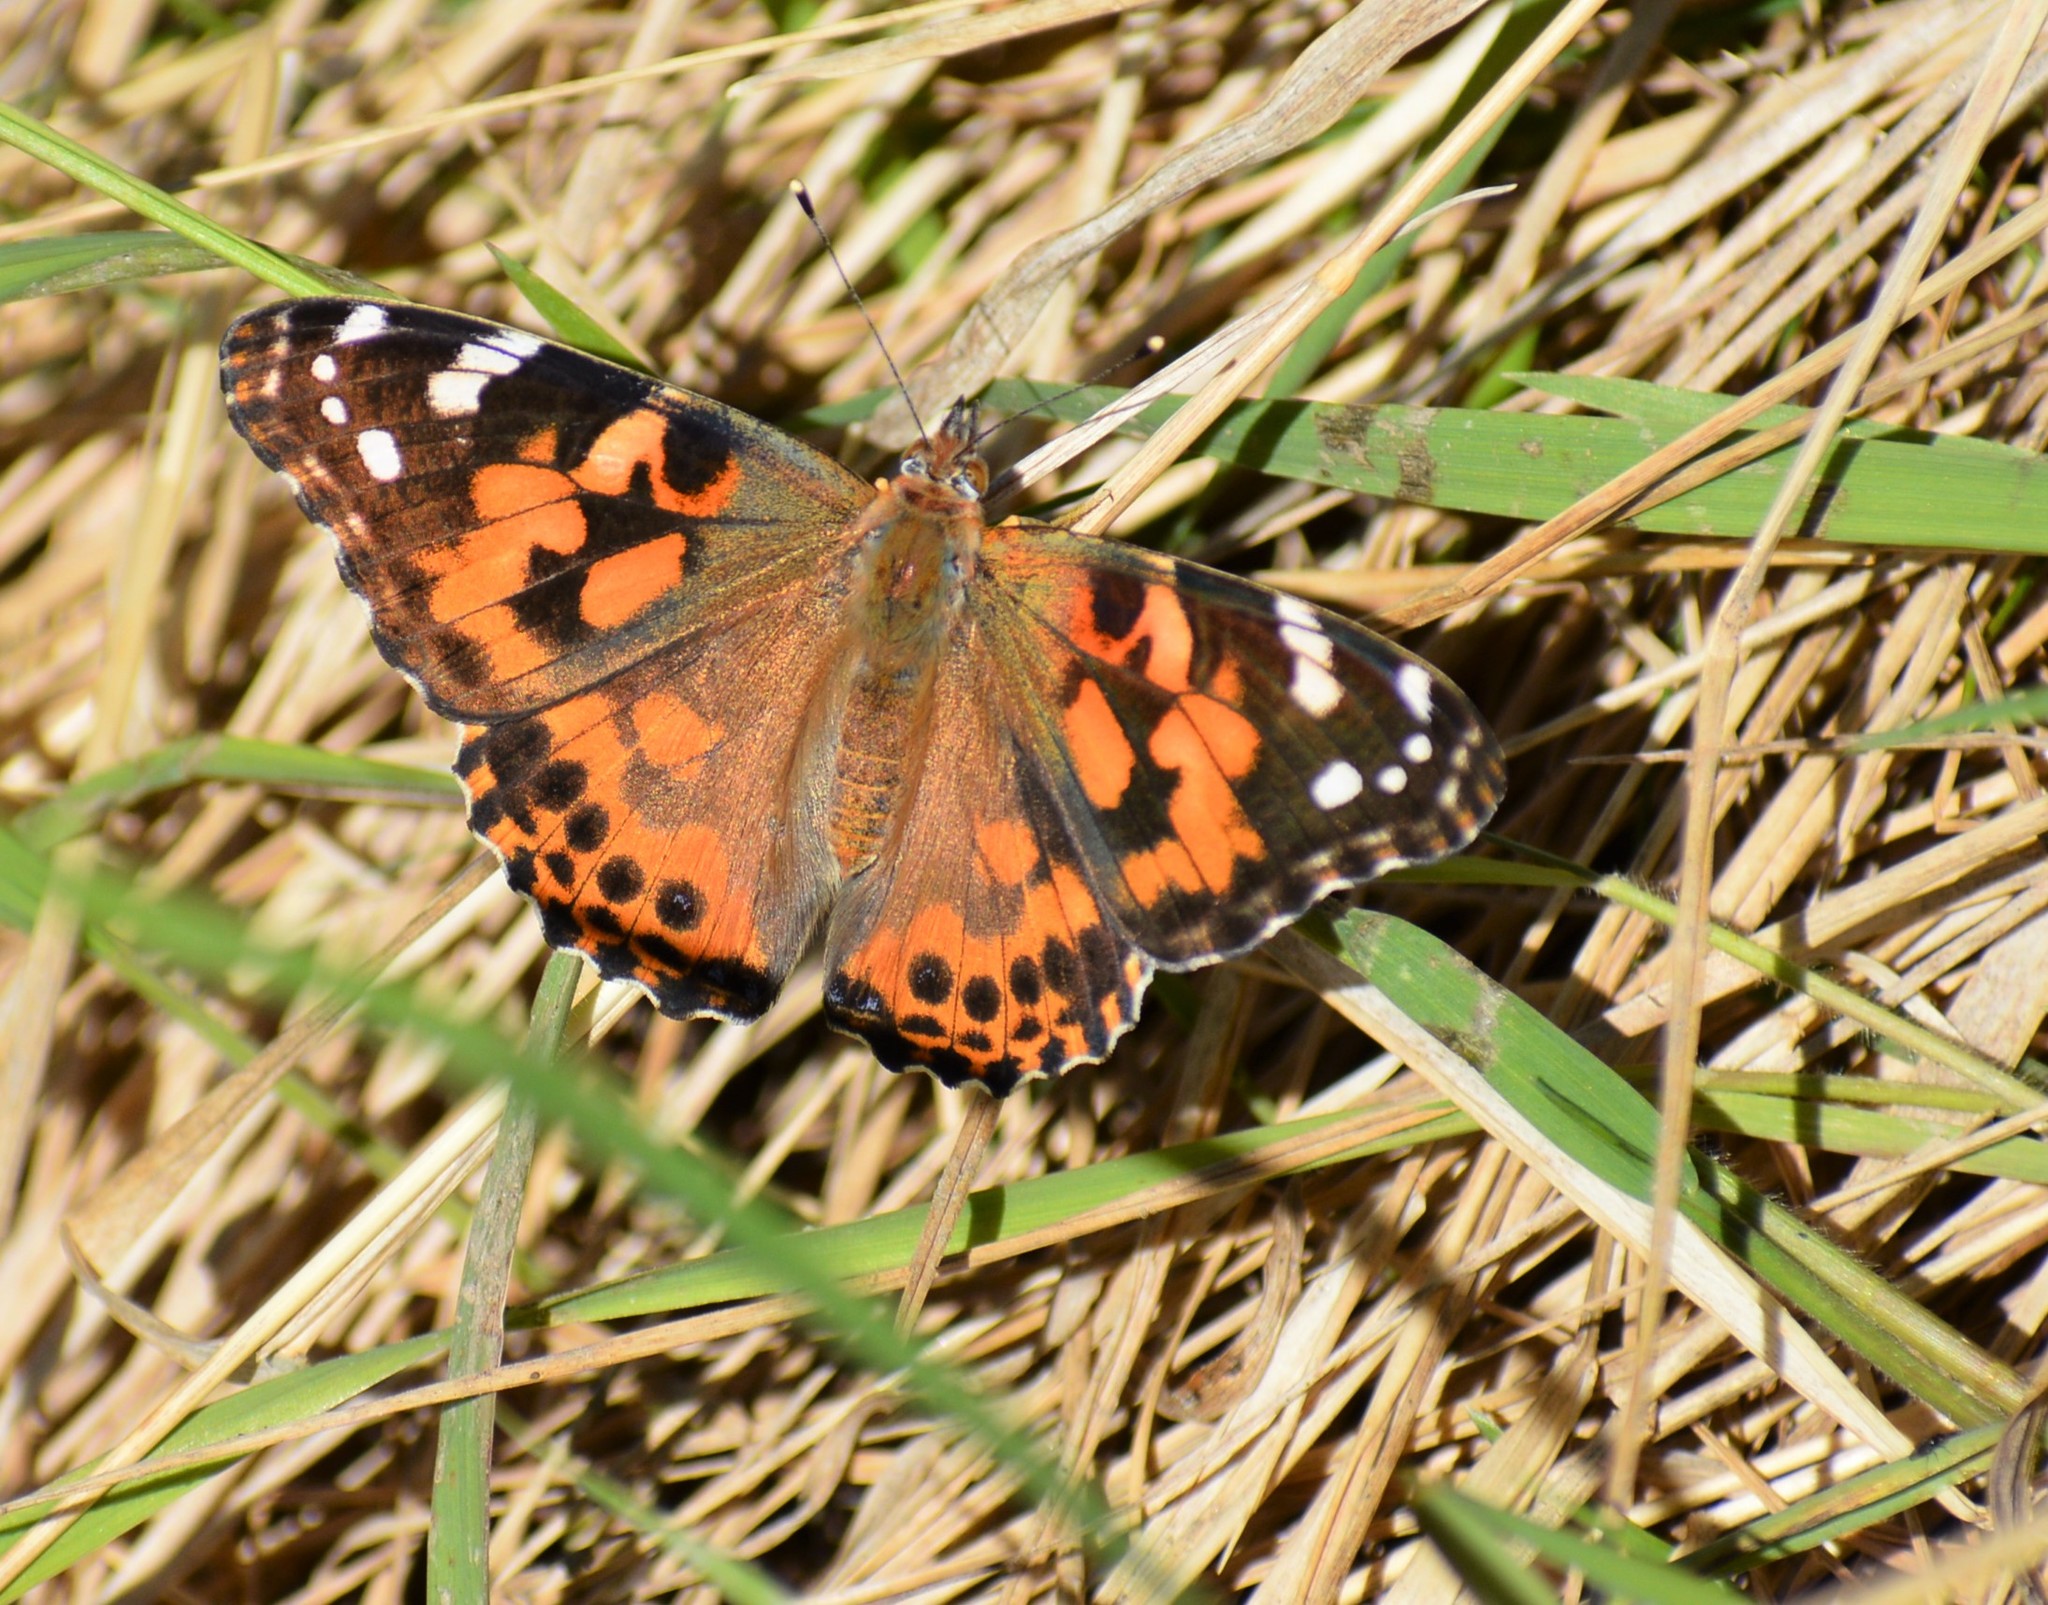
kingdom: Animalia
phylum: Arthropoda
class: Insecta
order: Lepidoptera
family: Nymphalidae
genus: Vanessa
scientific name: Vanessa cardui
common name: Painted lady
